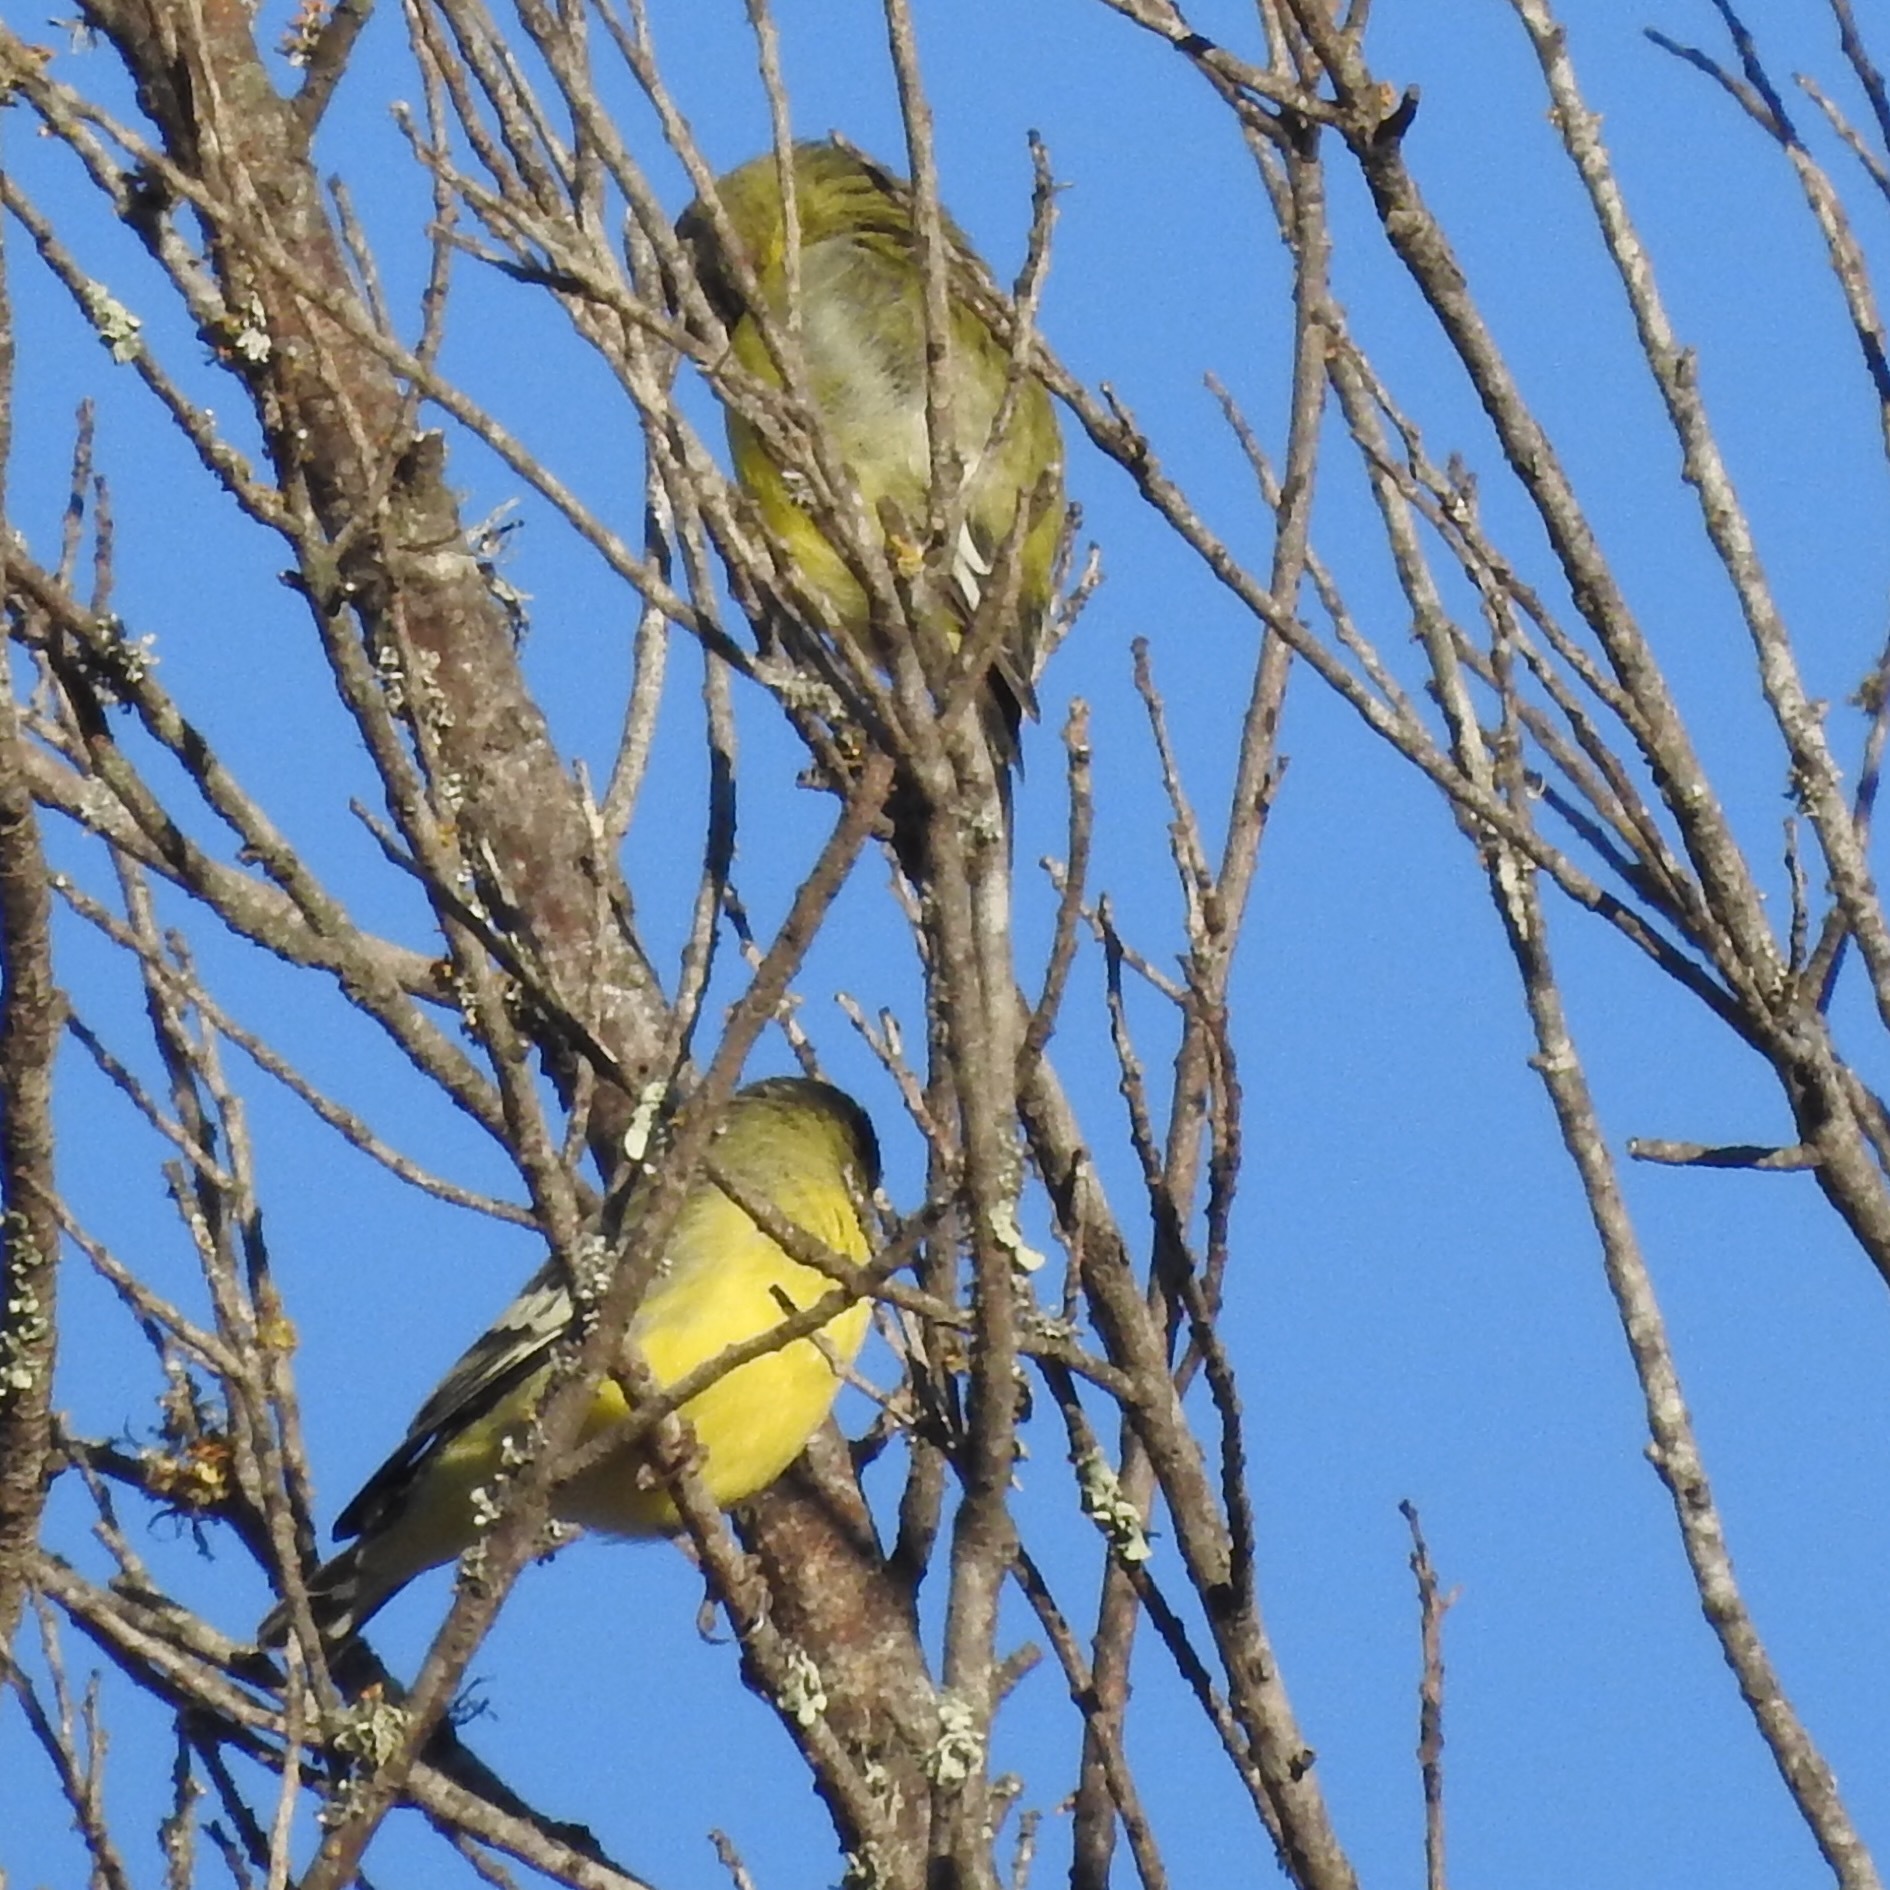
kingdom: Animalia
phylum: Chordata
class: Aves
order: Passeriformes
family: Fringillidae
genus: Spinus
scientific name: Spinus psaltria
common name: Lesser goldfinch
